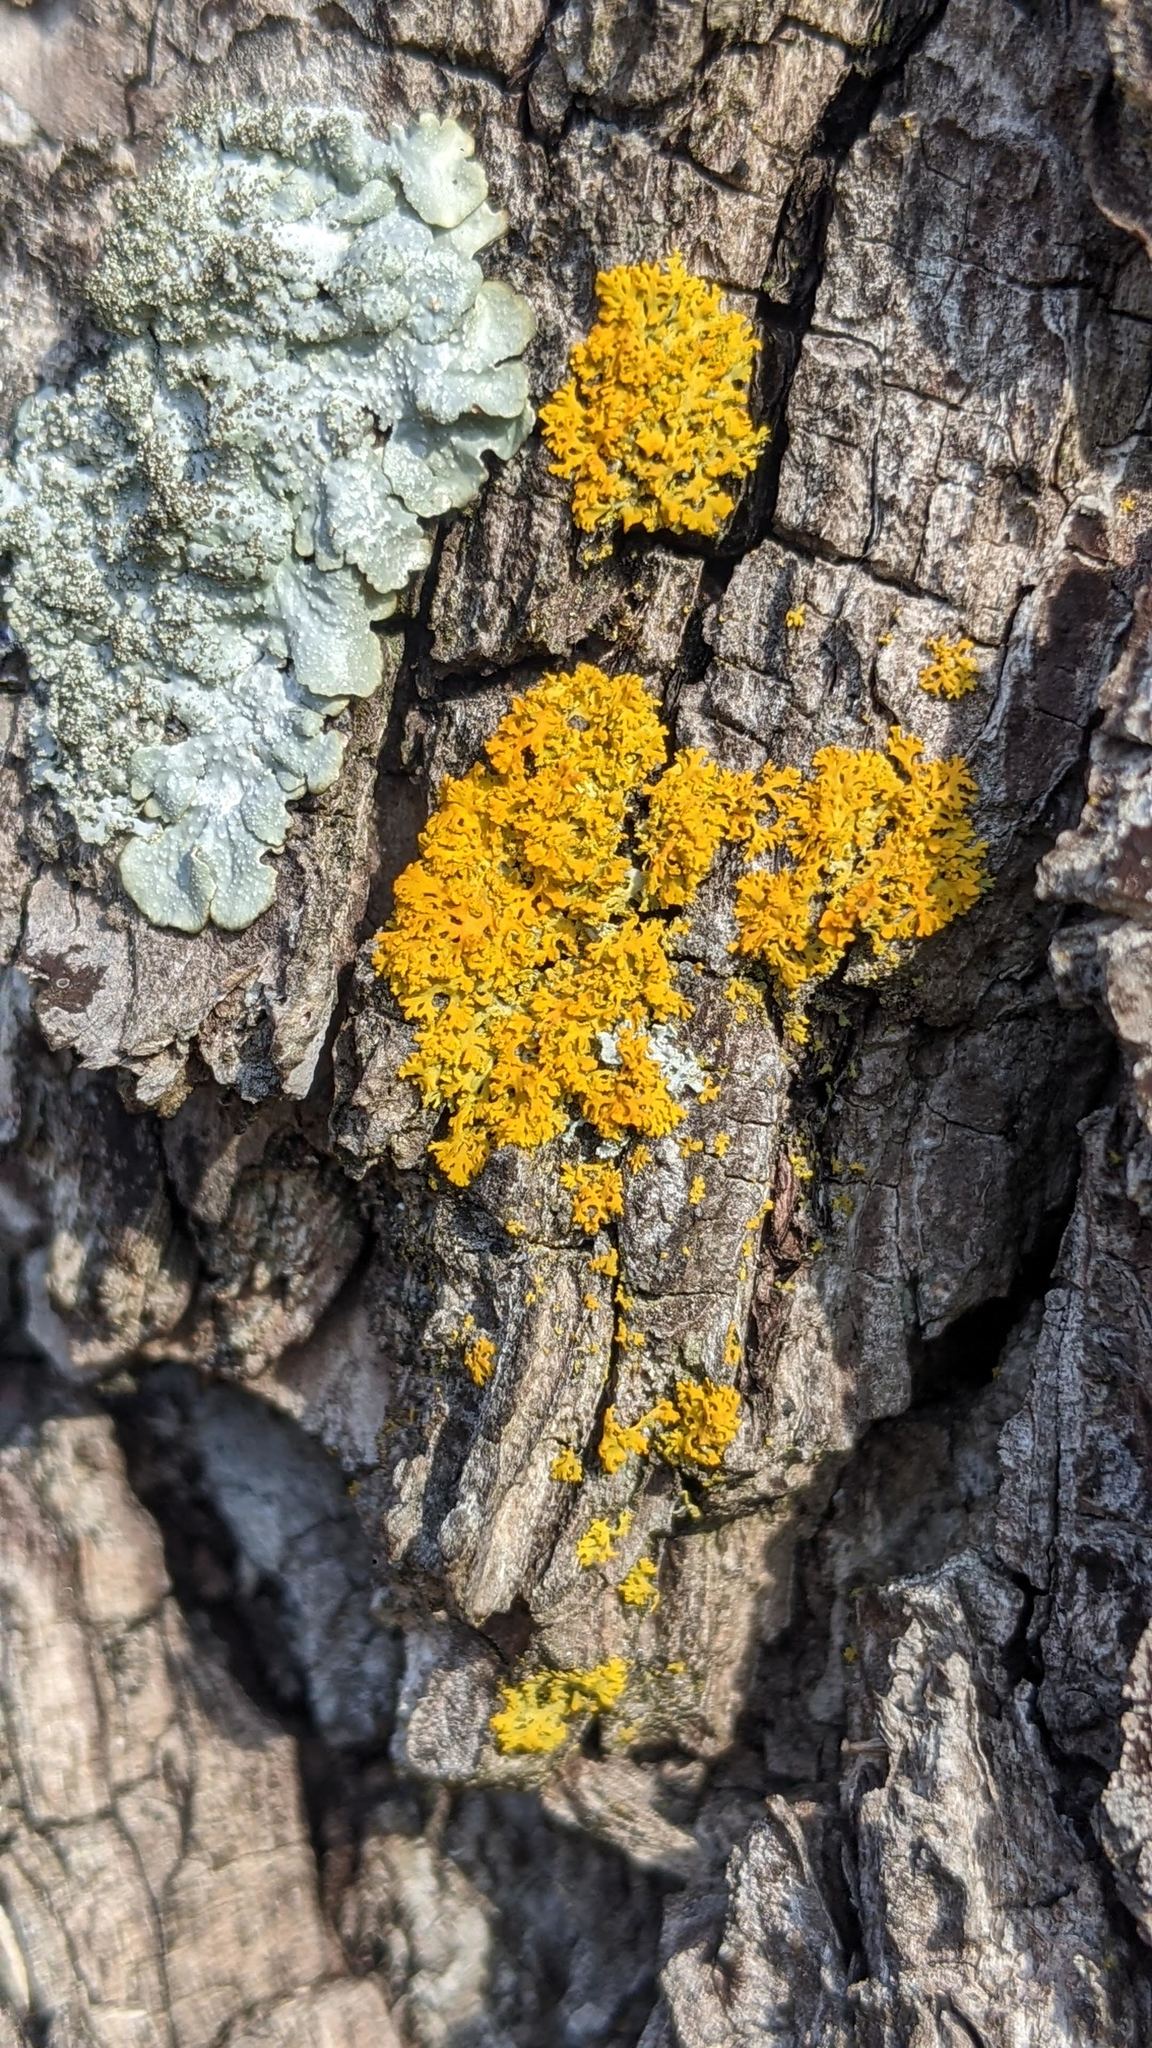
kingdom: Fungi
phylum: Ascomycota
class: Lecanoromycetes
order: Teloschistales
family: Teloschistaceae
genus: Gallowayella
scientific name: Gallowayella weberi
